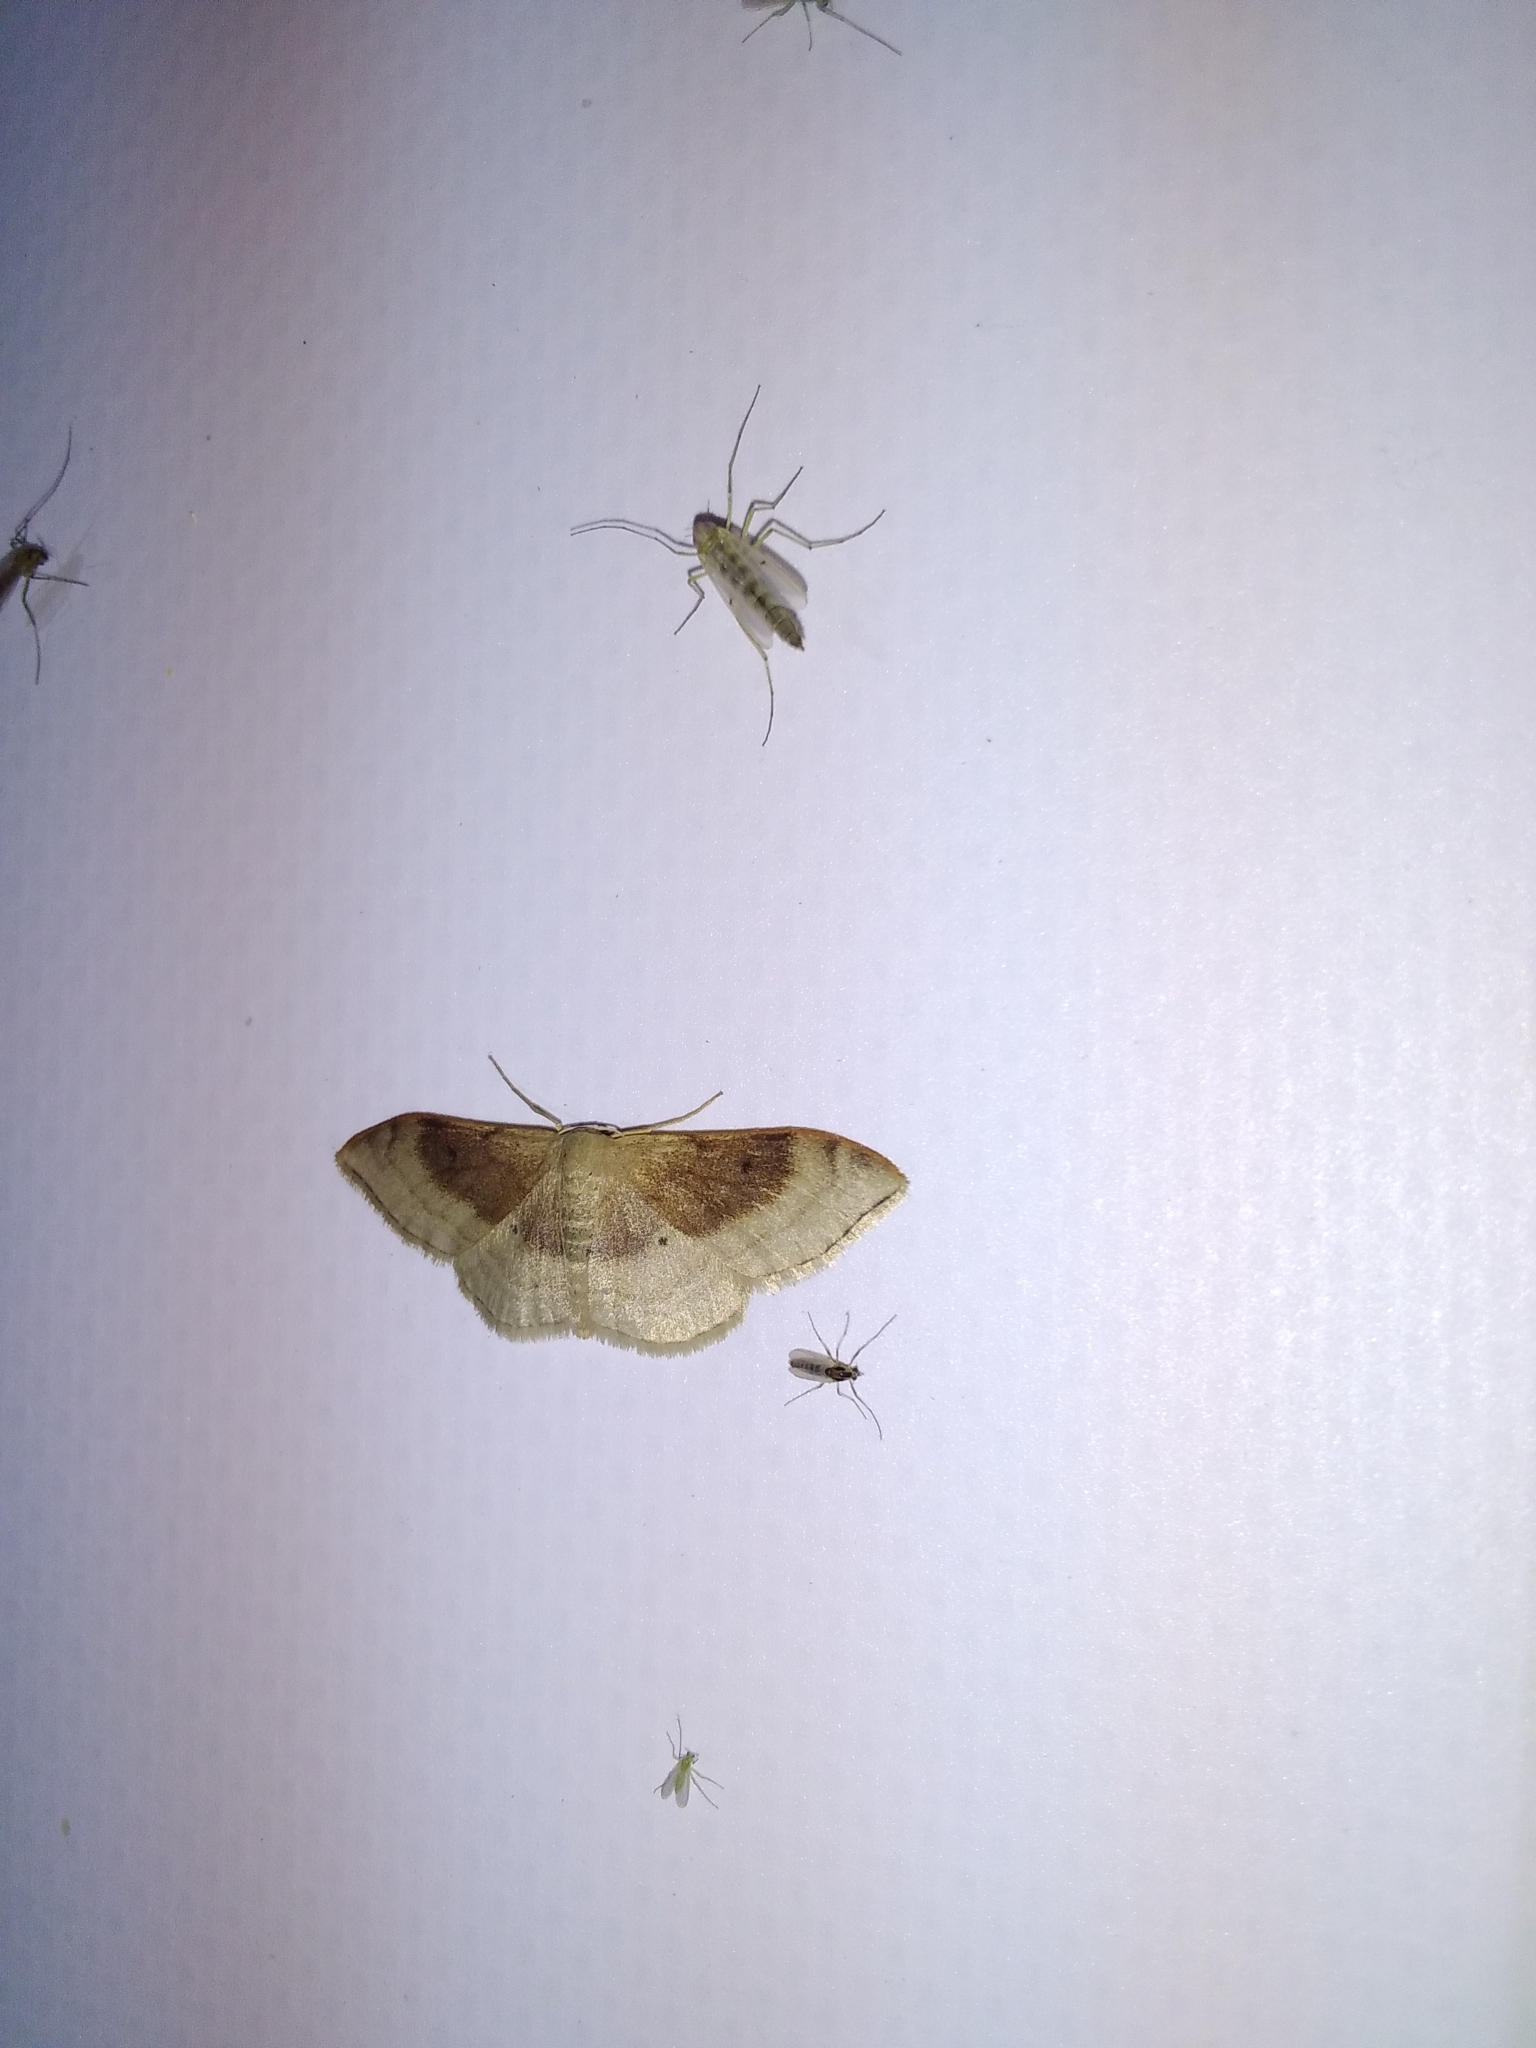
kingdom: Animalia
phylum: Arthropoda
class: Insecta
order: Lepidoptera
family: Geometridae
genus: Idaea
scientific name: Idaea degeneraria
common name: Portland ribbon wave
